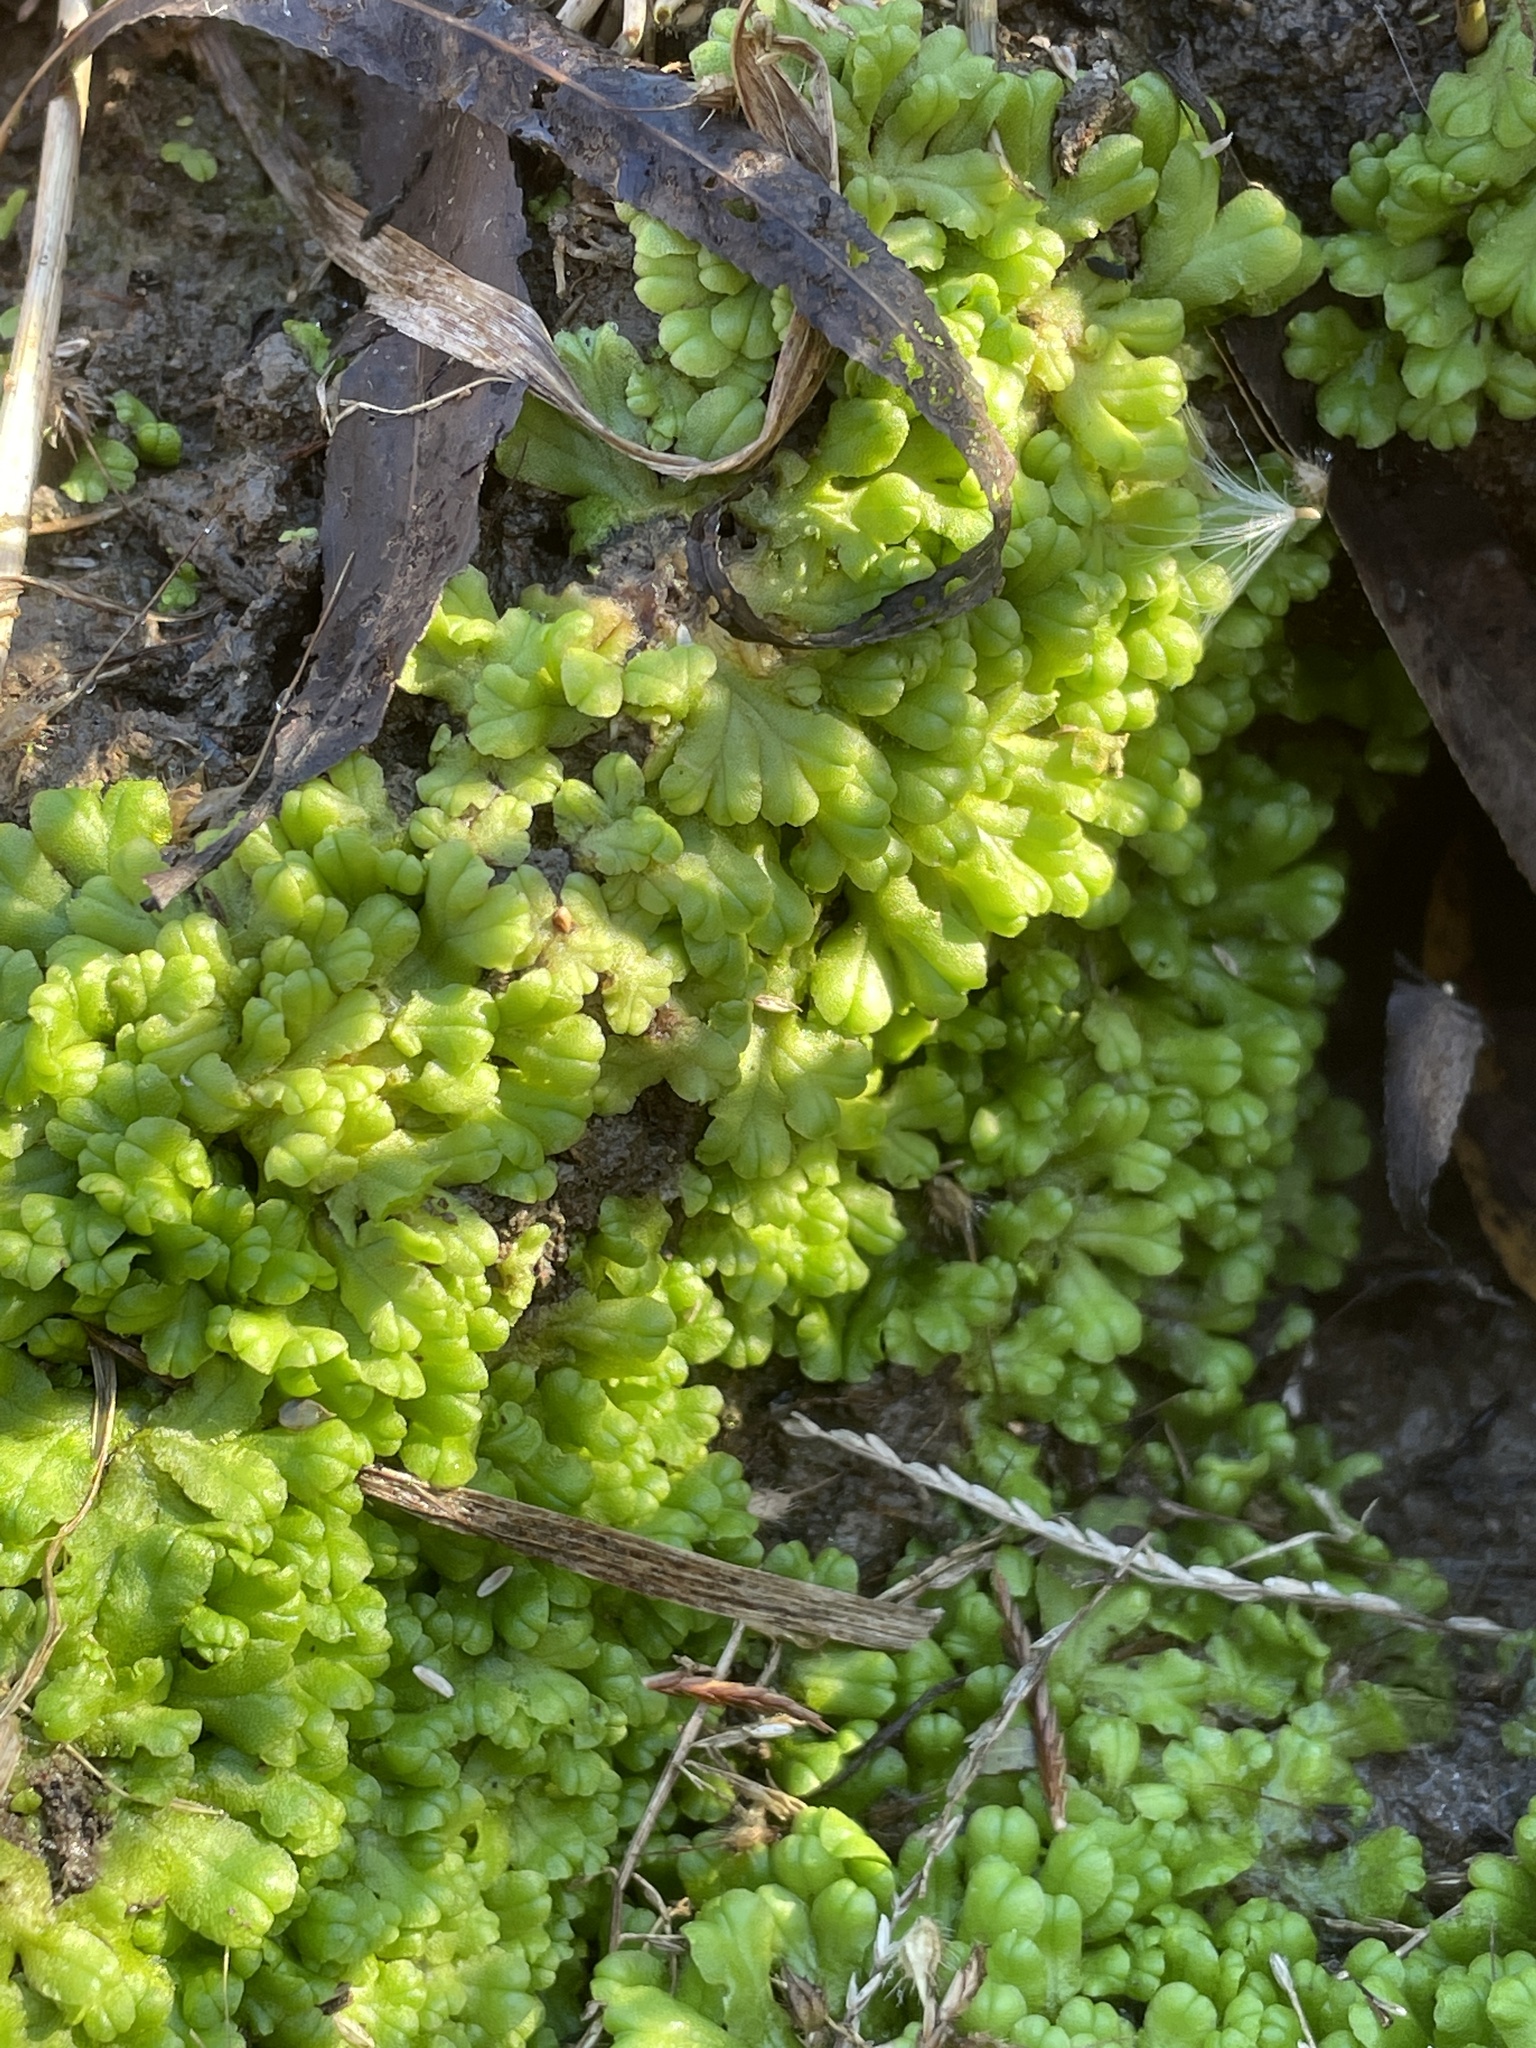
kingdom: Plantae
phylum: Marchantiophyta
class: Marchantiopsida
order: Marchantiales
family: Ricciaceae
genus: Ricciocarpos
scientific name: Ricciocarpos natans
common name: Purple-fringed liverwort
